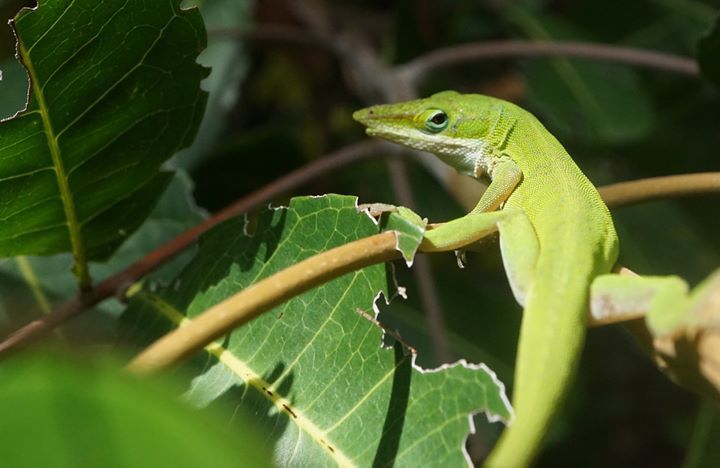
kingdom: Animalia
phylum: Chordata
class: Squamata
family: Dactyloidae
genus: Anolis
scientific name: Anolis carolinensis
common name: Green anole
